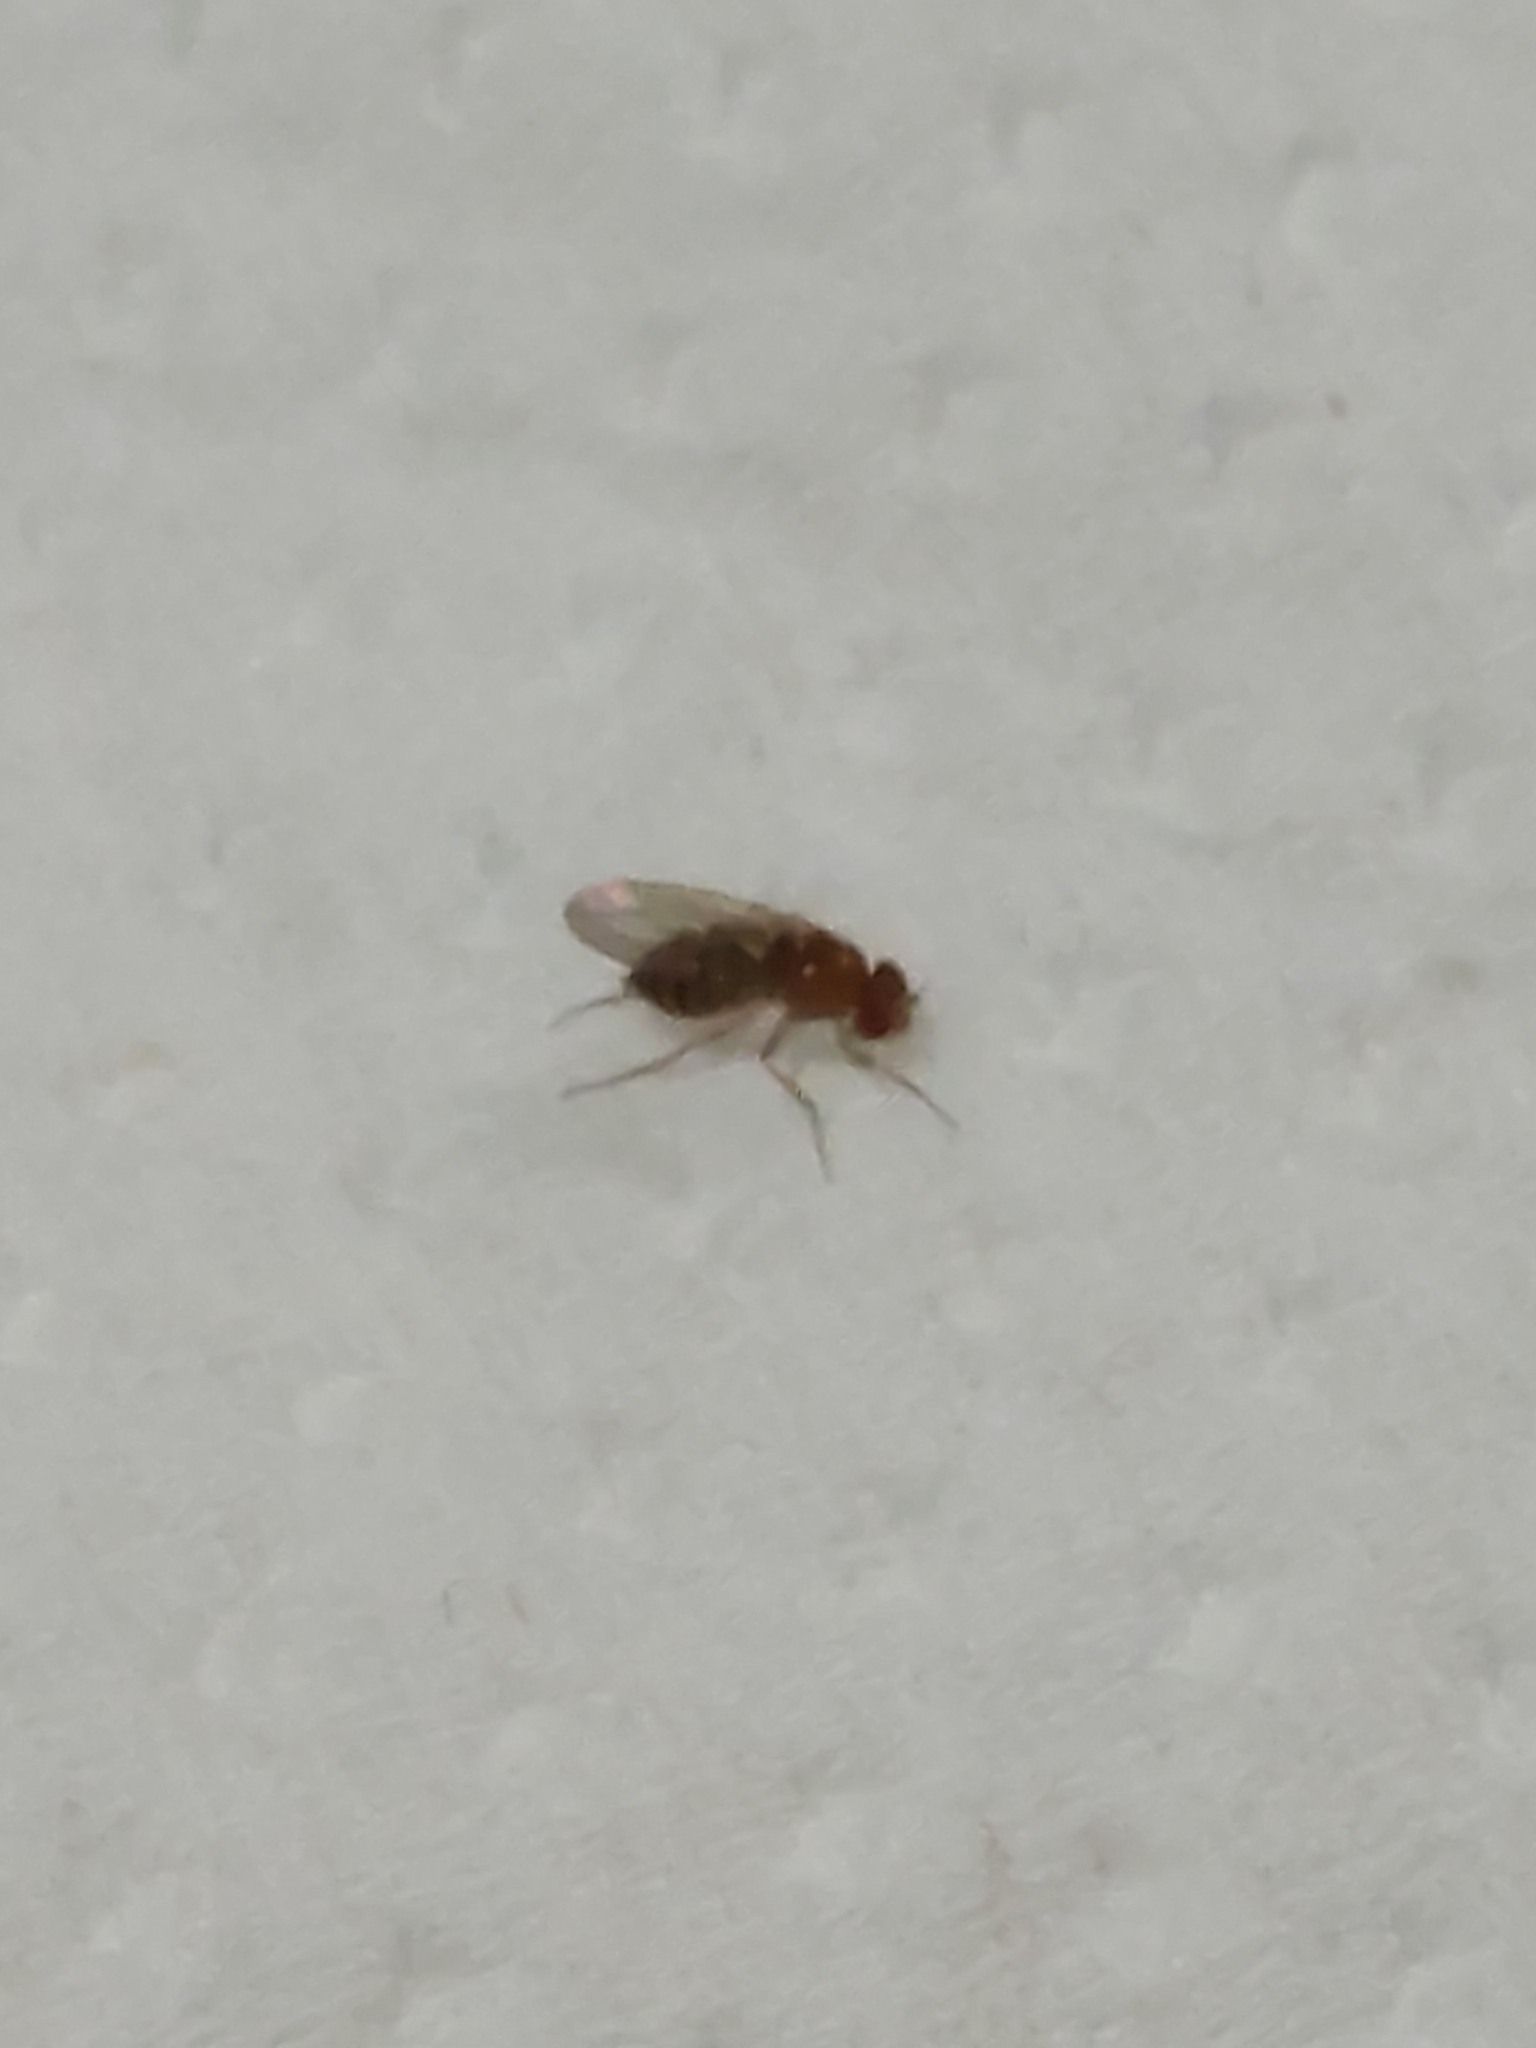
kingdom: Animalia
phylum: Arthropoda
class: Insecta
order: Diptera
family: Drosophilidae
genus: Drosophila
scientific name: Drosophila
